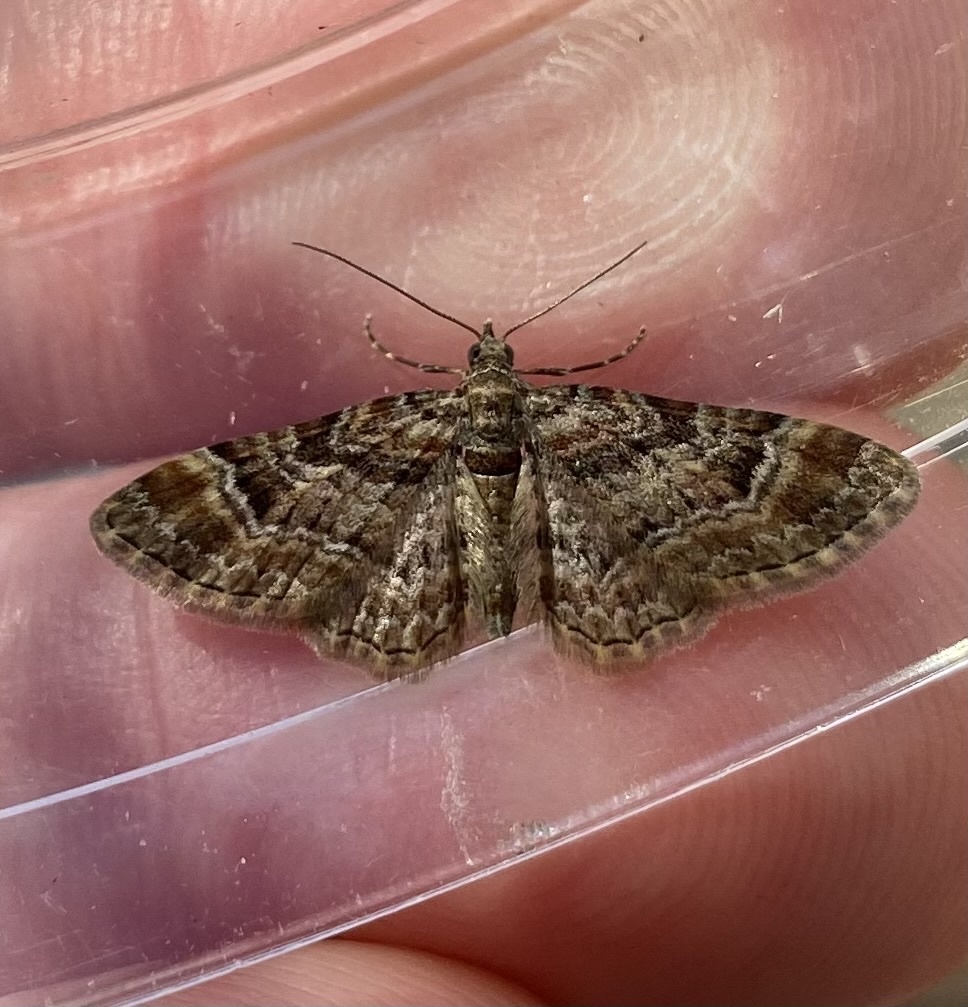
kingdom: Animalia
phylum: Arthropoda
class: Insecta
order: Lepidoptera
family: Geometridae
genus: Gymnoscelis
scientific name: Gymnoscelis rufifasciata
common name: Double-striped pug
